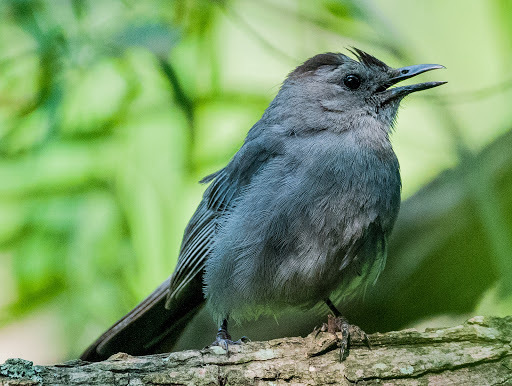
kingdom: Animalia
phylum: Chordata
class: Aves
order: Passeriformes
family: Mimidae
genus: Dumetella
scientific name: Dumetella carolinensis
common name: Gray catbird
